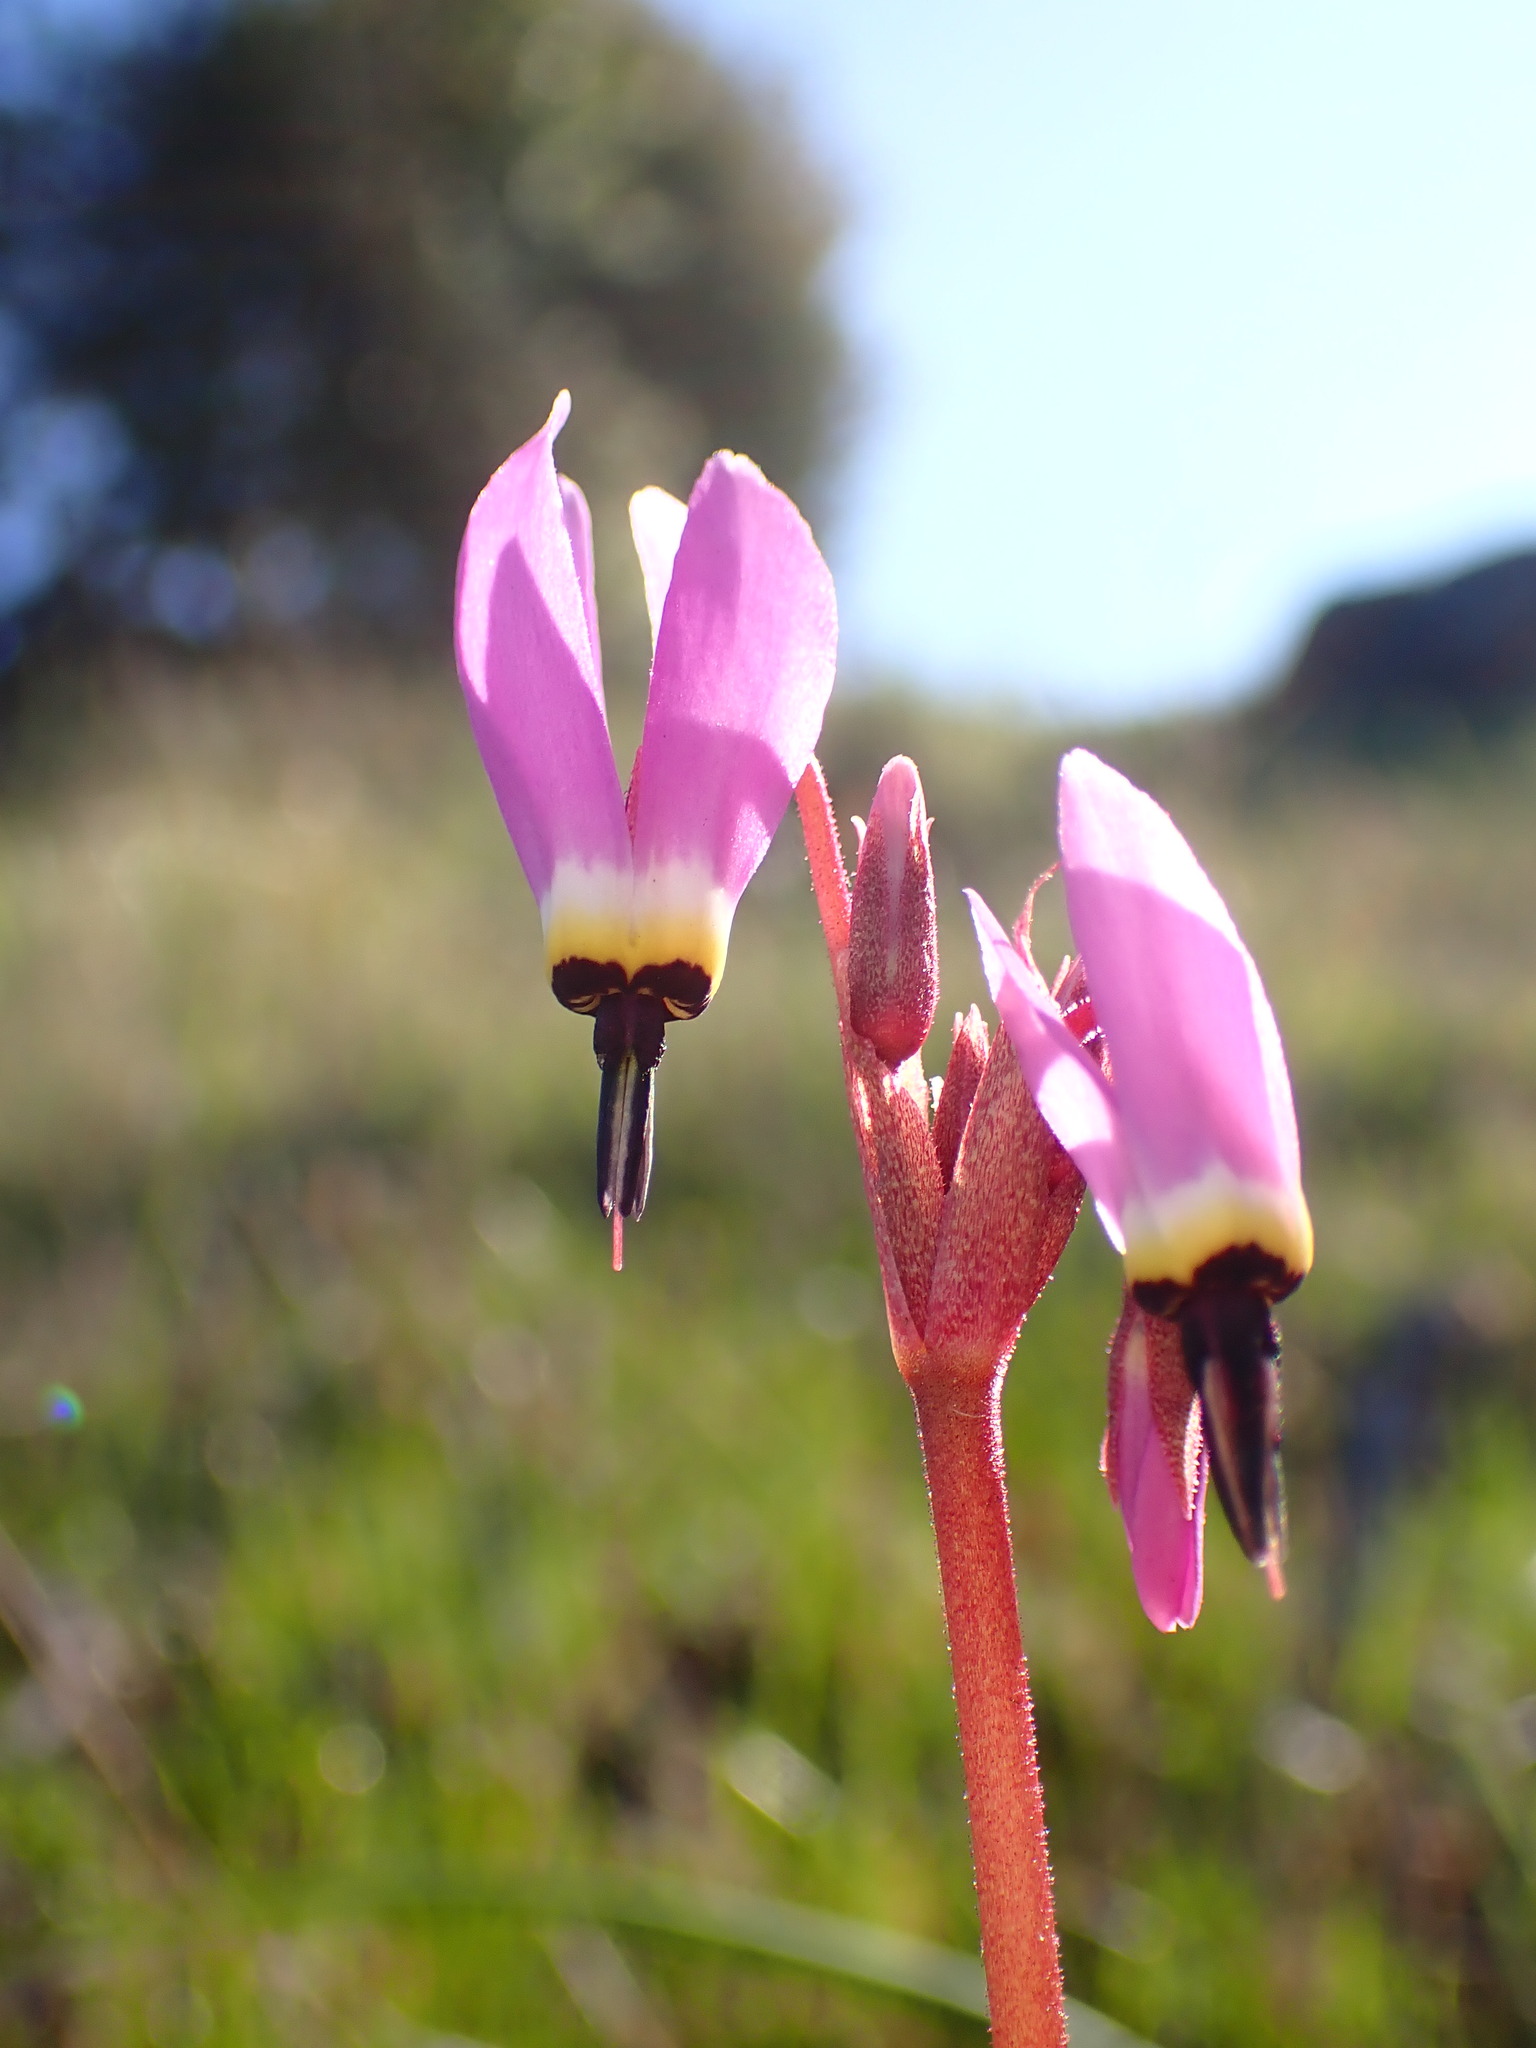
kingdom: Plantae
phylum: Tracheophyta
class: Magnoliopsida
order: Ericales
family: Primulaceae
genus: Dodecatheon
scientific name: Dodecatheon hendersonii
